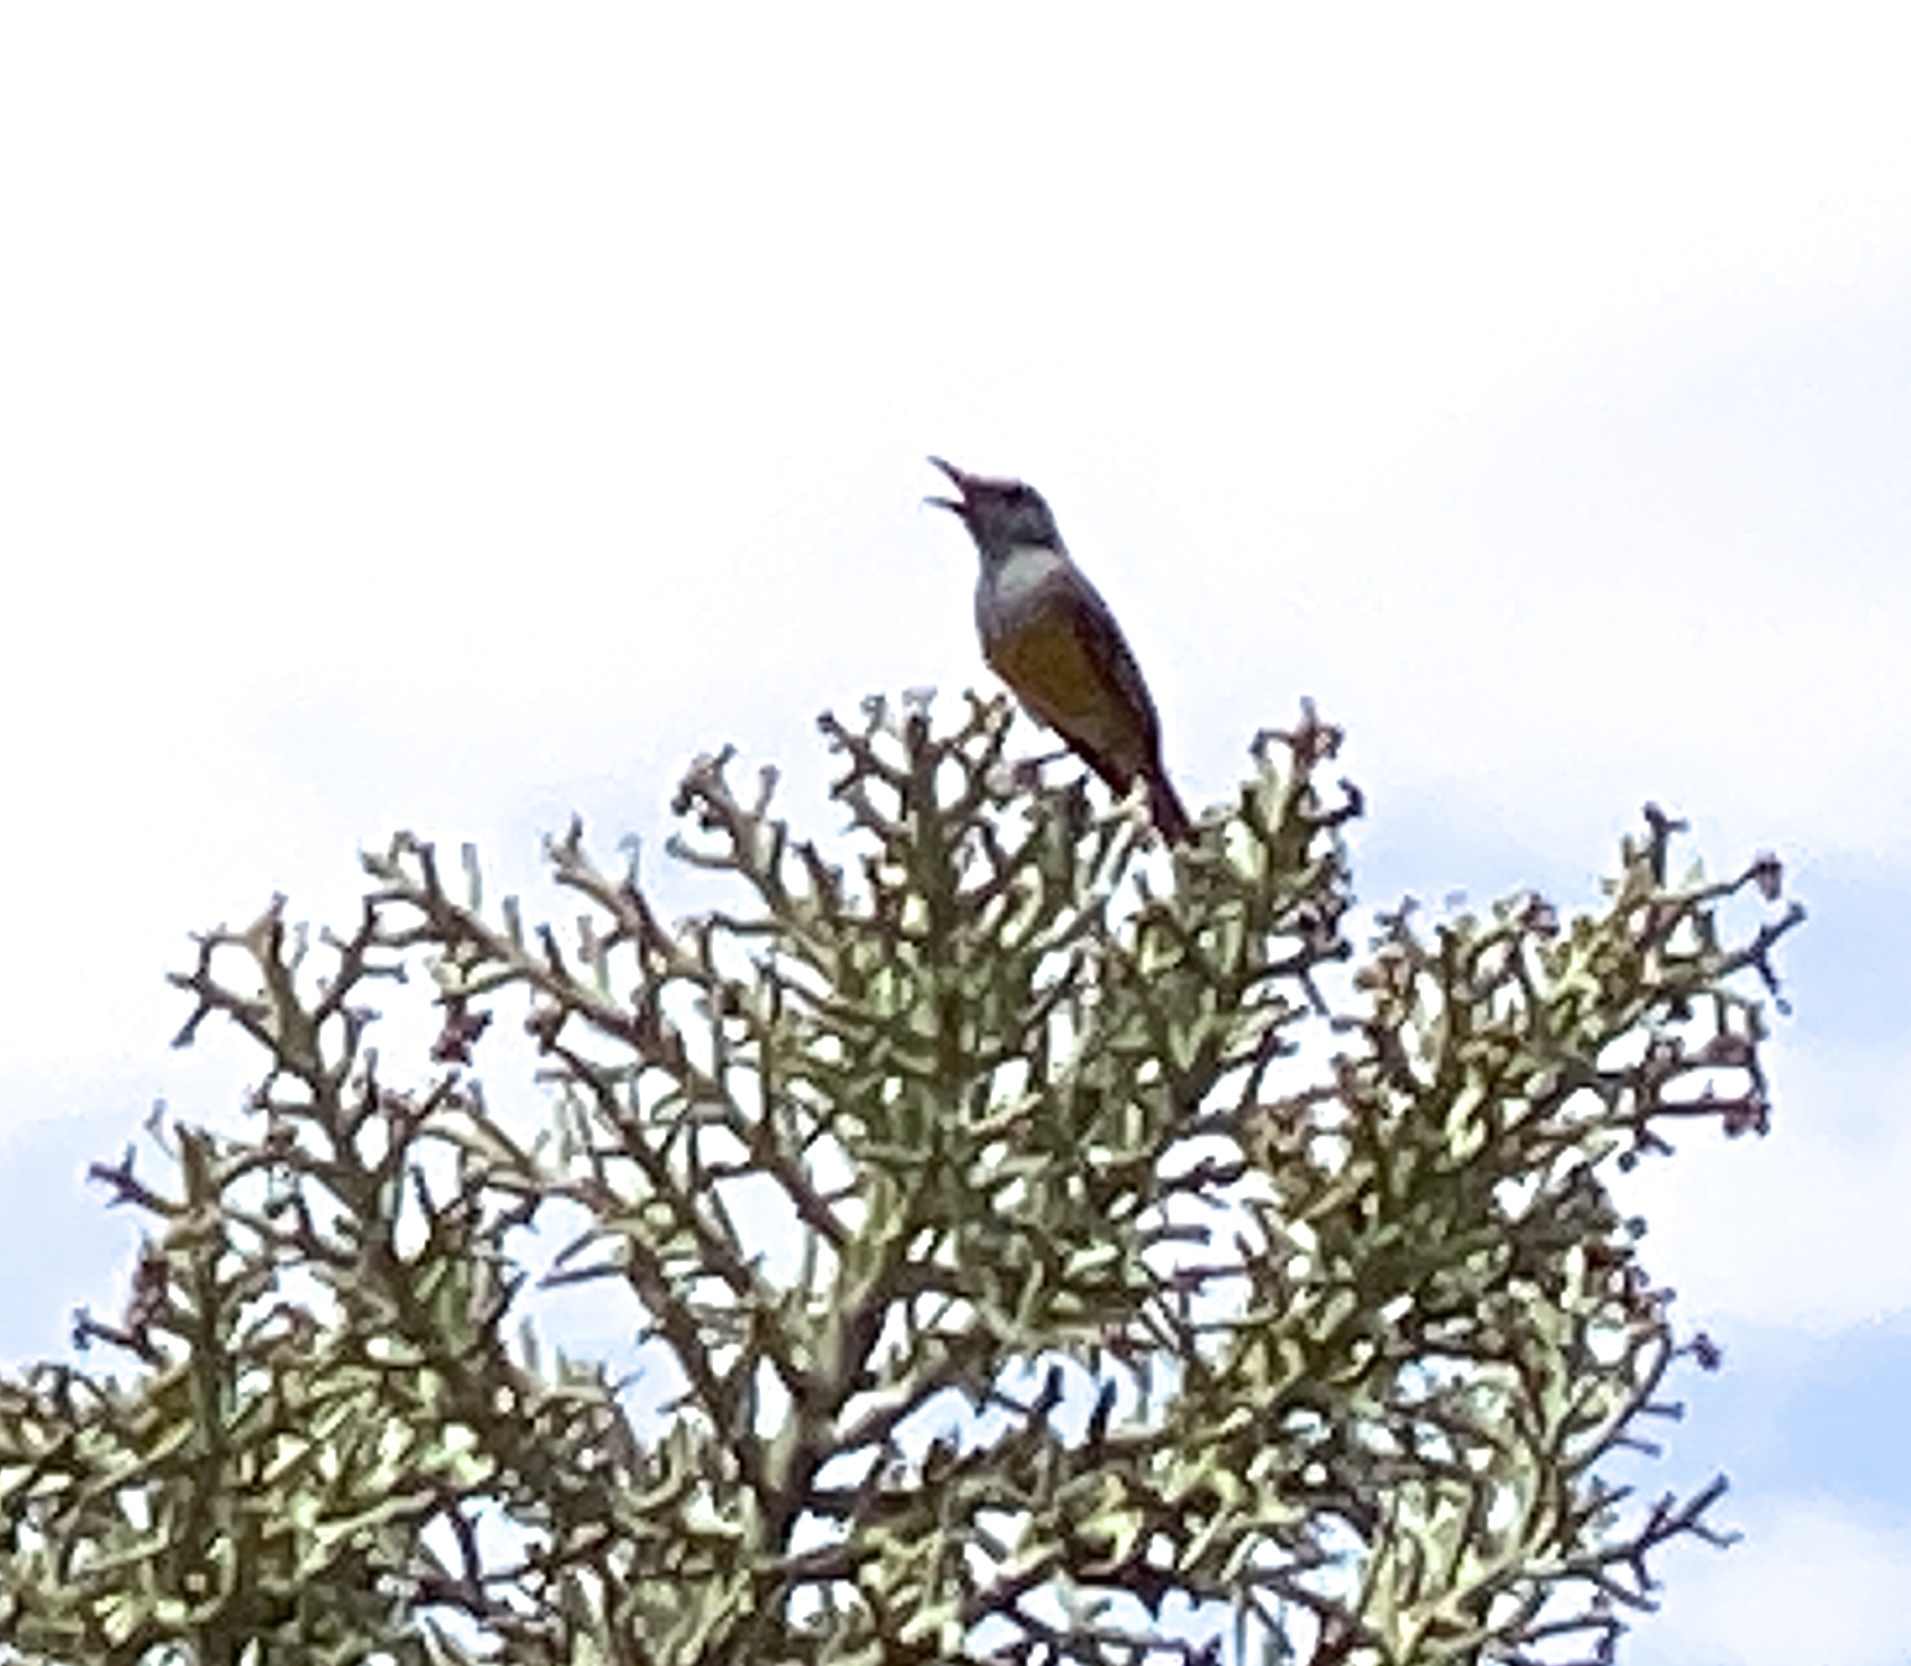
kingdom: Animalia
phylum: Chordata
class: Aves
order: Passeriformes
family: Muscicapidae
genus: Monticola
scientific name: Monticola imerina
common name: Littoral rock-thrush
